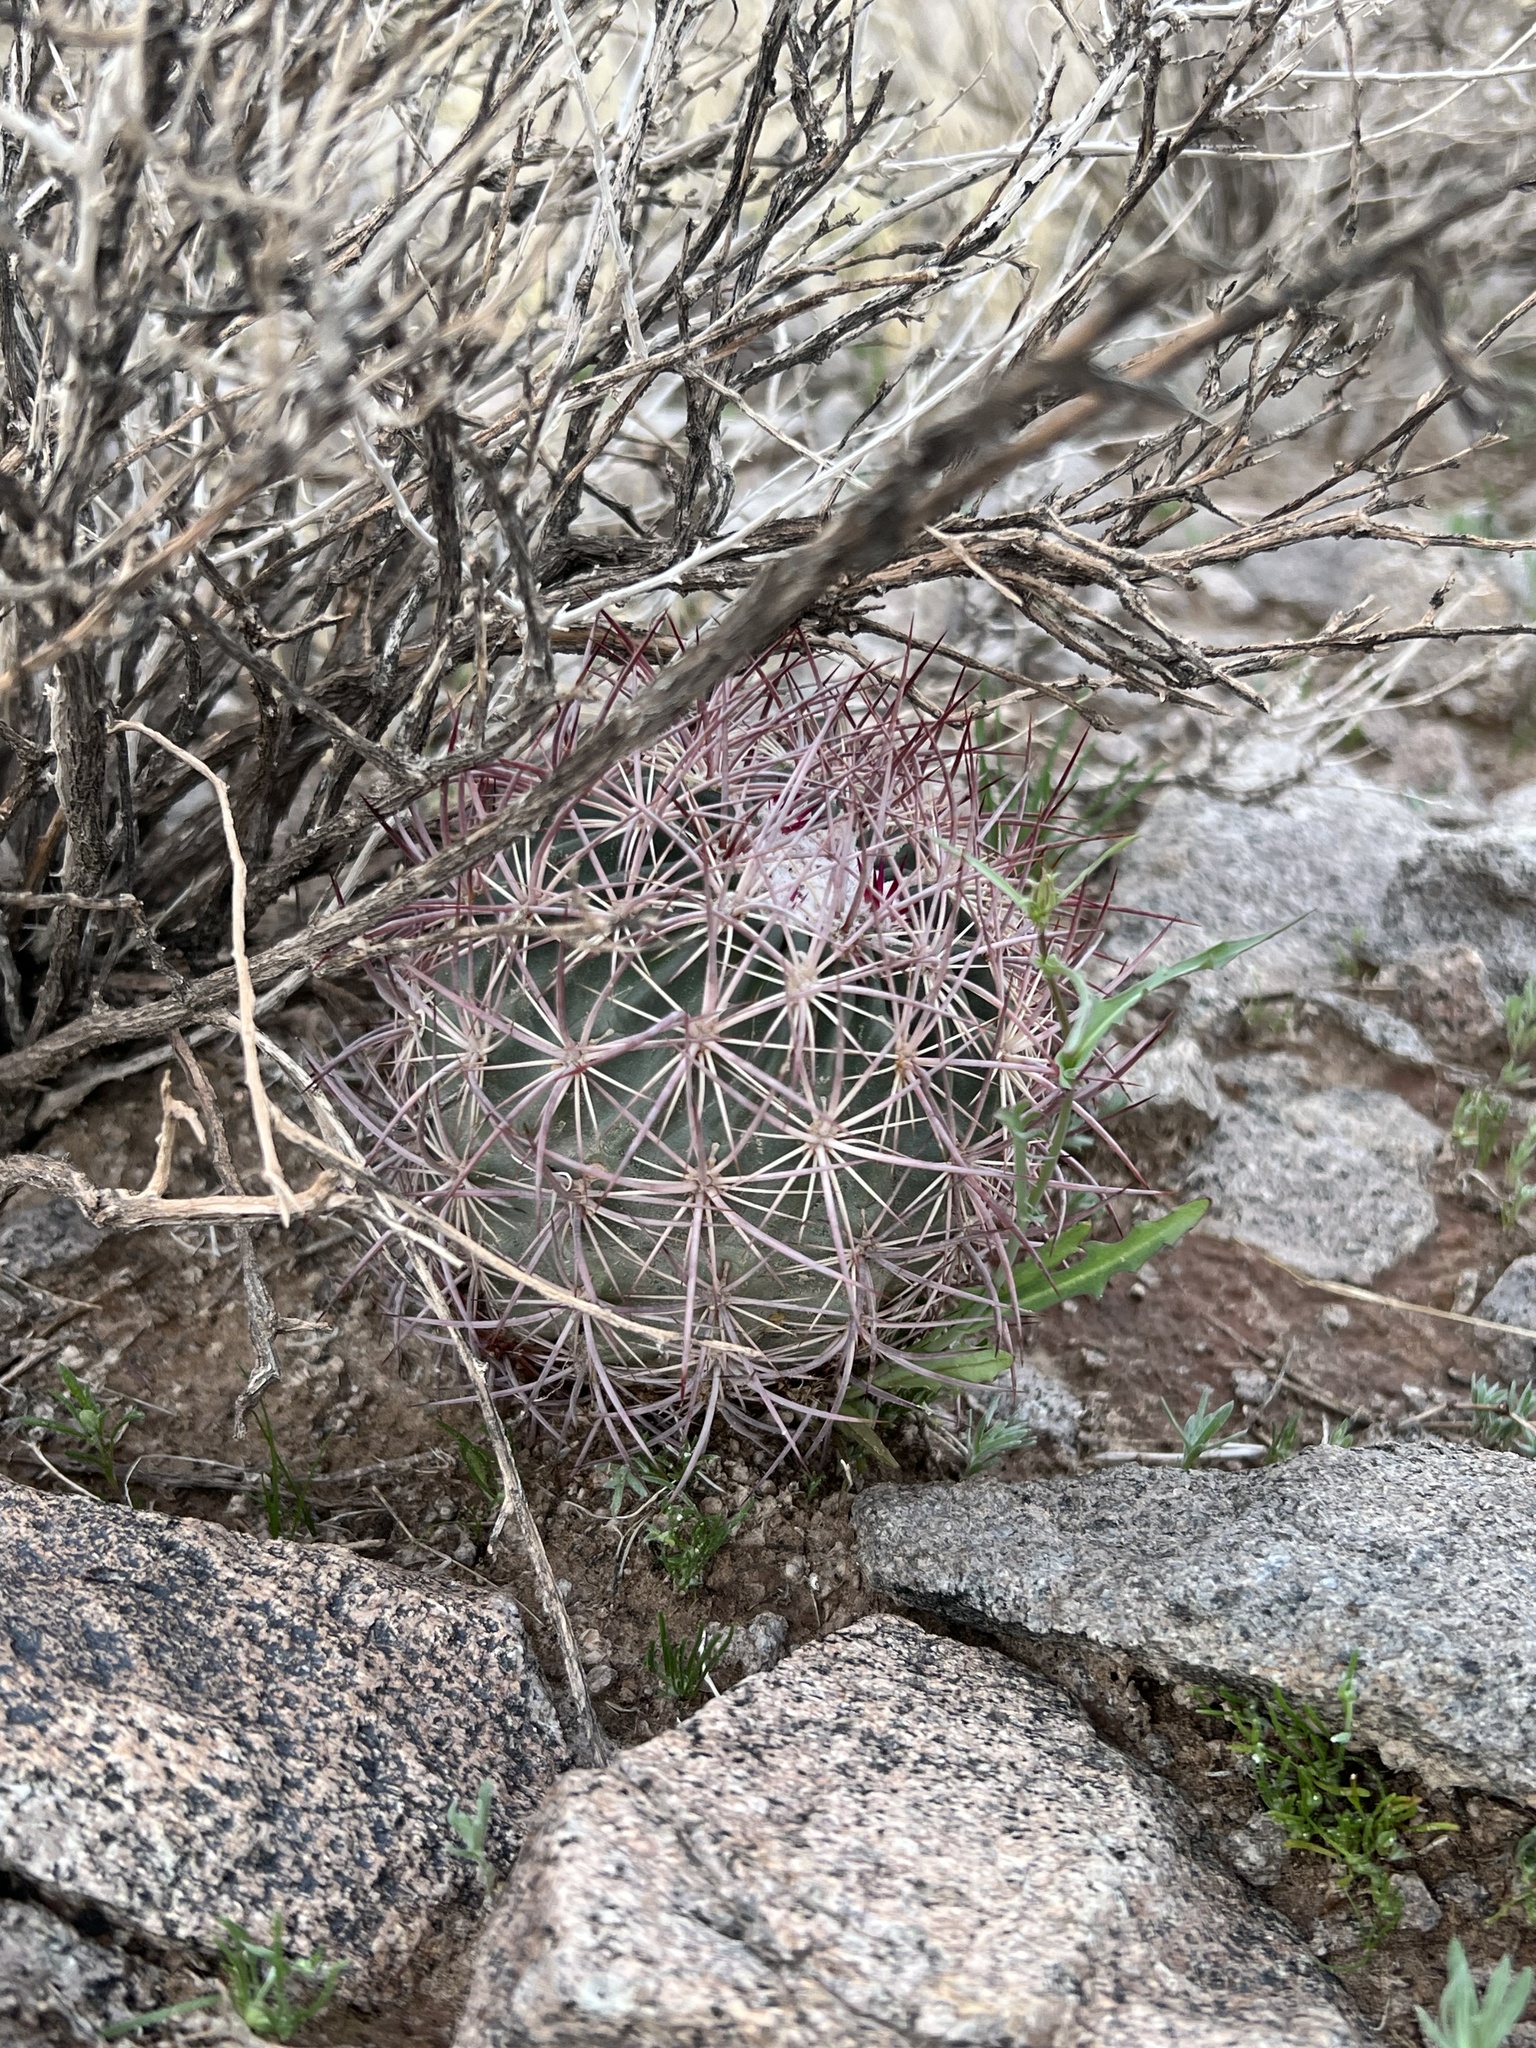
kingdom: Plantae
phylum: Tracheophyta
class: Magnoliopsida
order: Caryophyllales
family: Cactaceae
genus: Sclerocactus
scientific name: Sclerocactus johnsonii
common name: Eight-spine fishhook cactus
